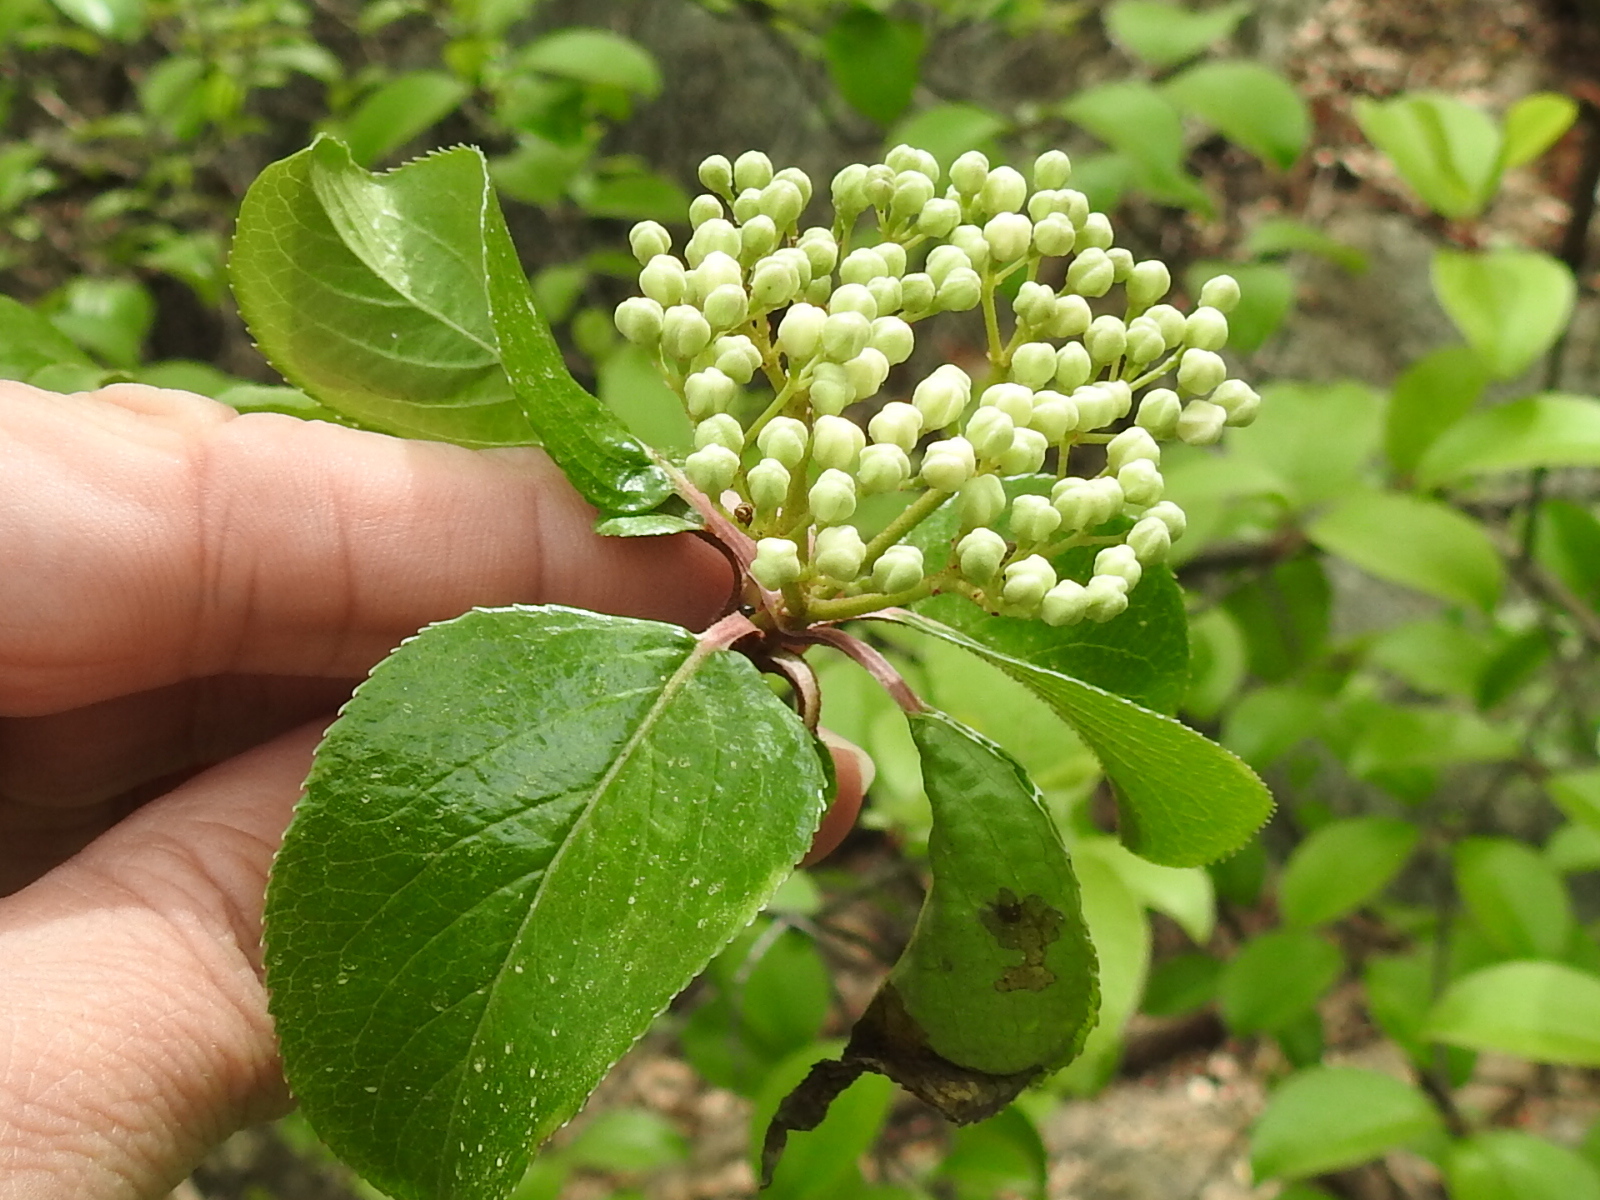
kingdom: Plantae
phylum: Tracheophyta
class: Magnoliopsida
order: Dipsacales
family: Viburnaceae
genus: Viburnum
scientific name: Viburnum rufidulum
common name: Blue haw
